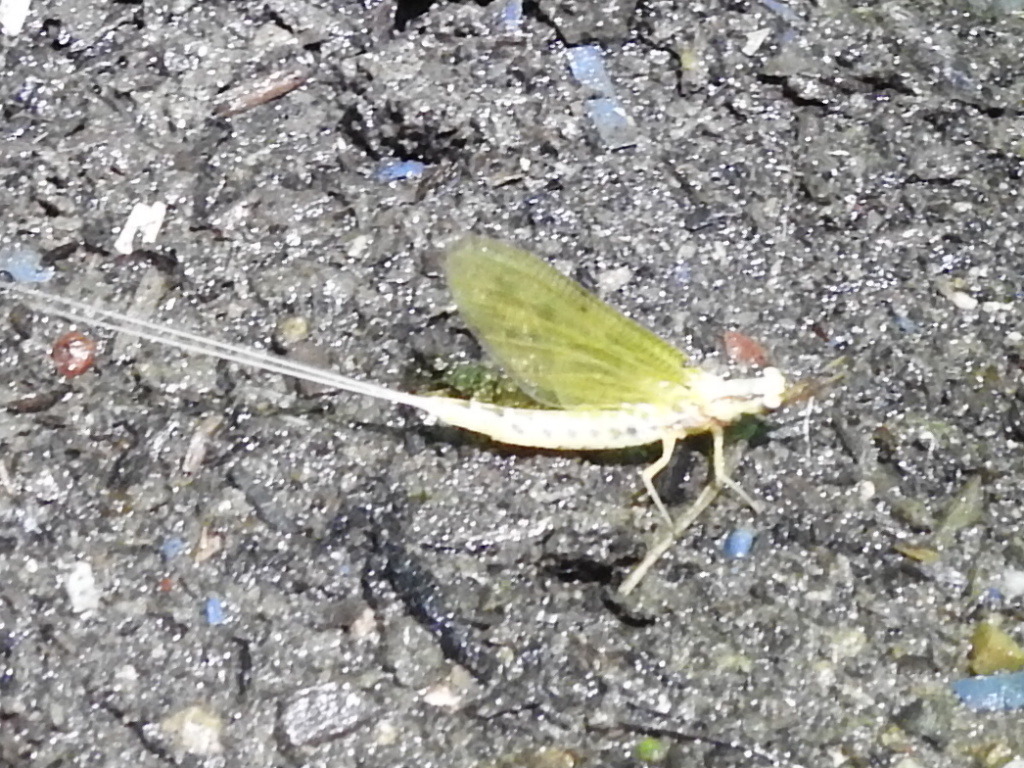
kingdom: Animalia
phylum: Arthropoda
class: Insecta
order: Ephemeroptera
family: Ephemeridae
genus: Hexagenia
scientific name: Hexagenia limbata
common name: Giant mayfly
